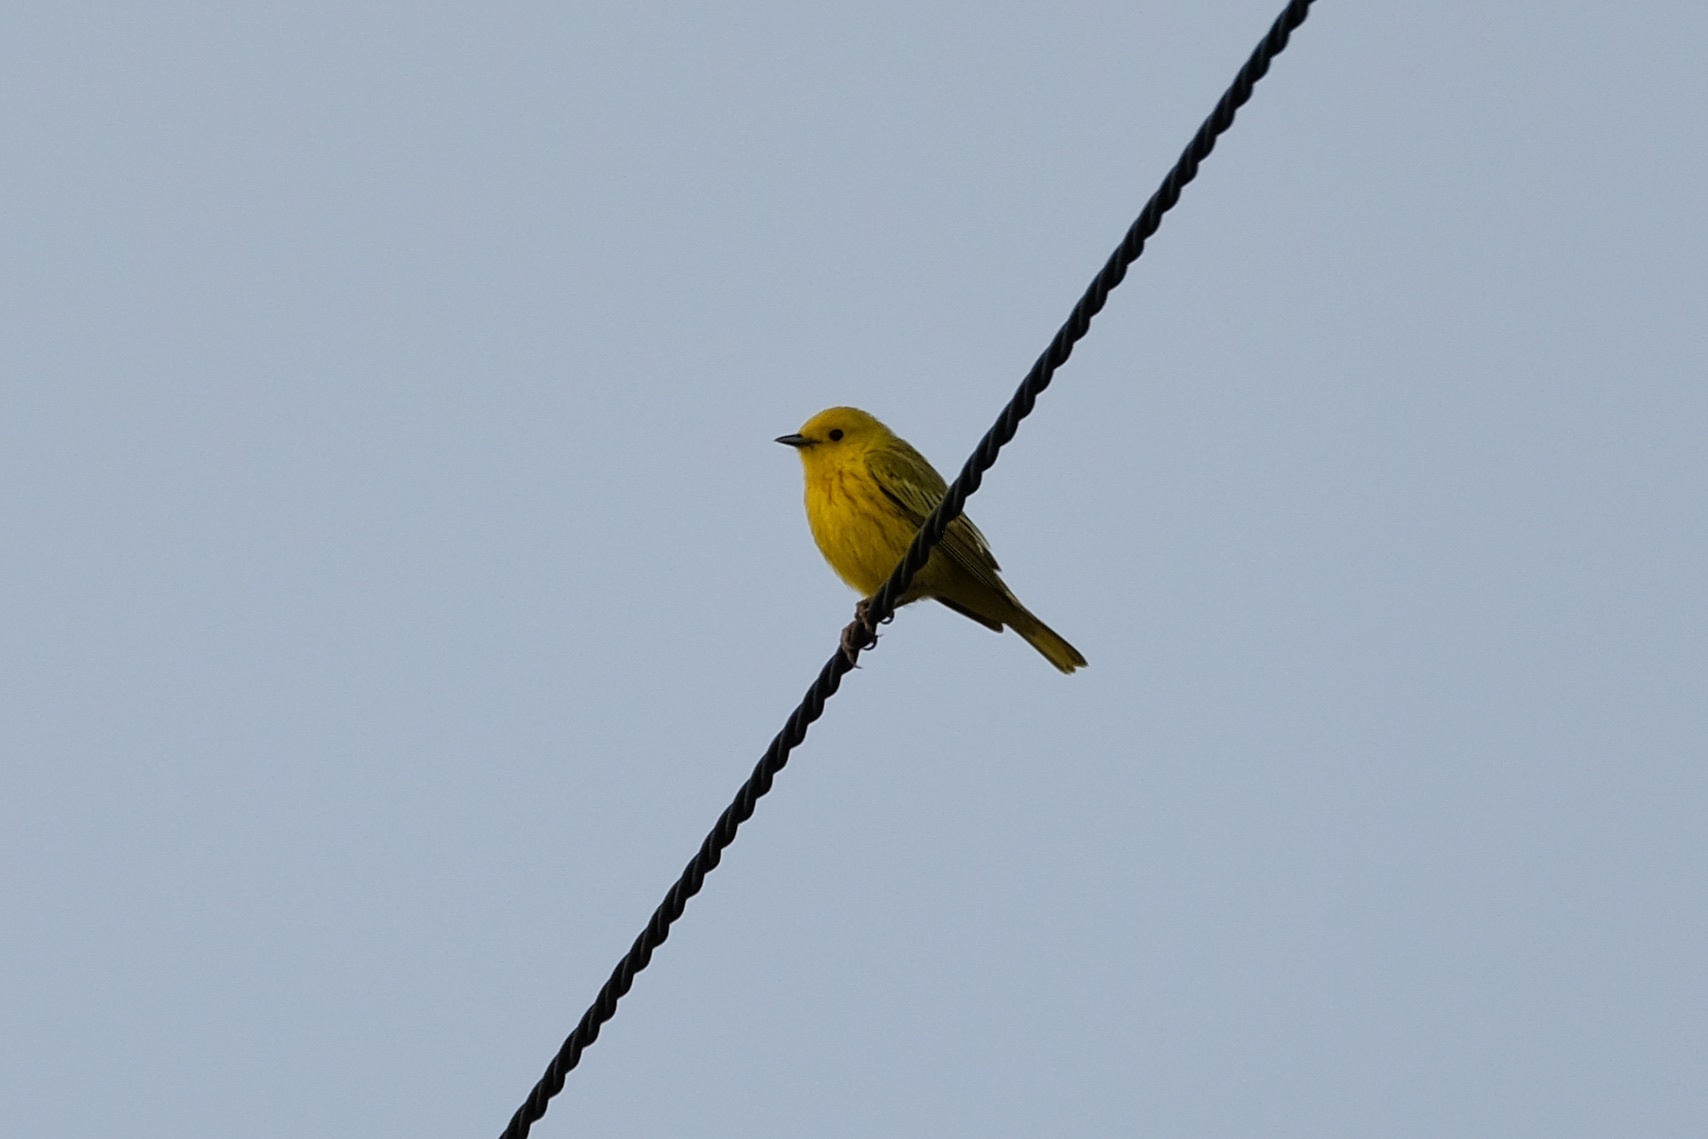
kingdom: Animalia
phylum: Chordata
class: Aves
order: Passeriformes
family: Parulidae
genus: Setophaga
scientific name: Setophaga petechia
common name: Yellow warbler
